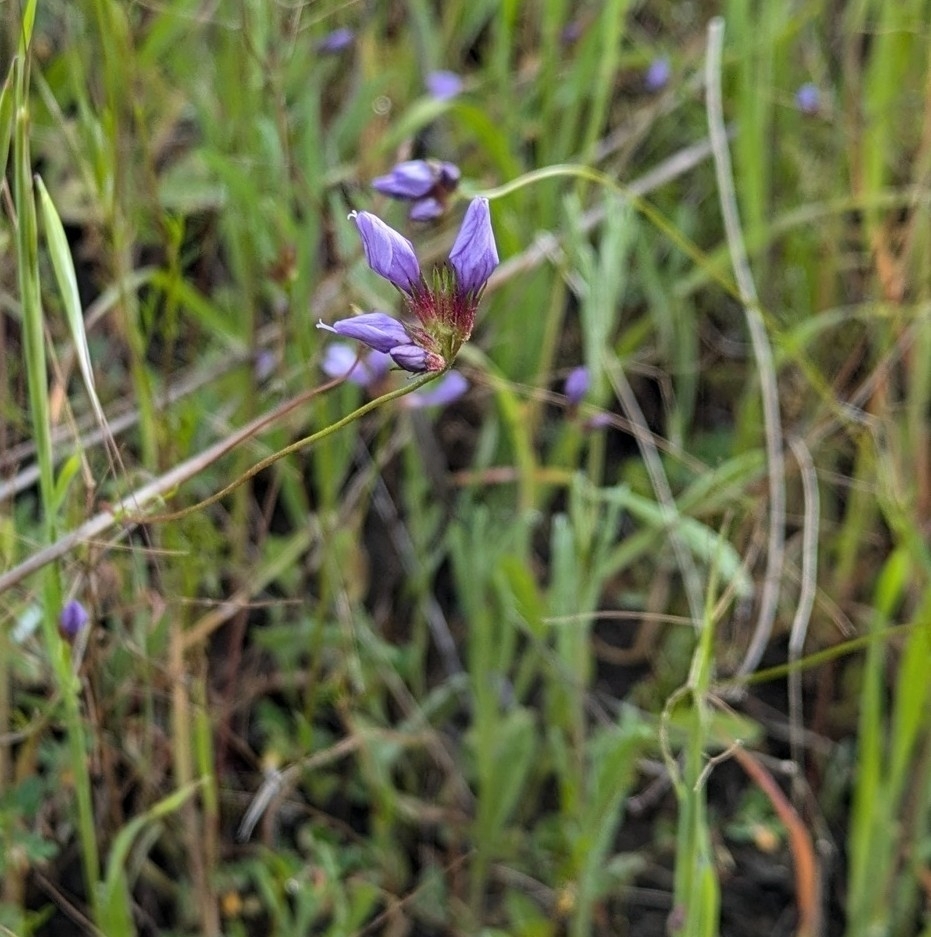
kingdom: Plantae
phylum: Tracheophyta
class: Magnoliopsida
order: Ericales
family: Polemoniaceae
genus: Gilia
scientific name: Gilia achilleifolia
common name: California gily-flower
